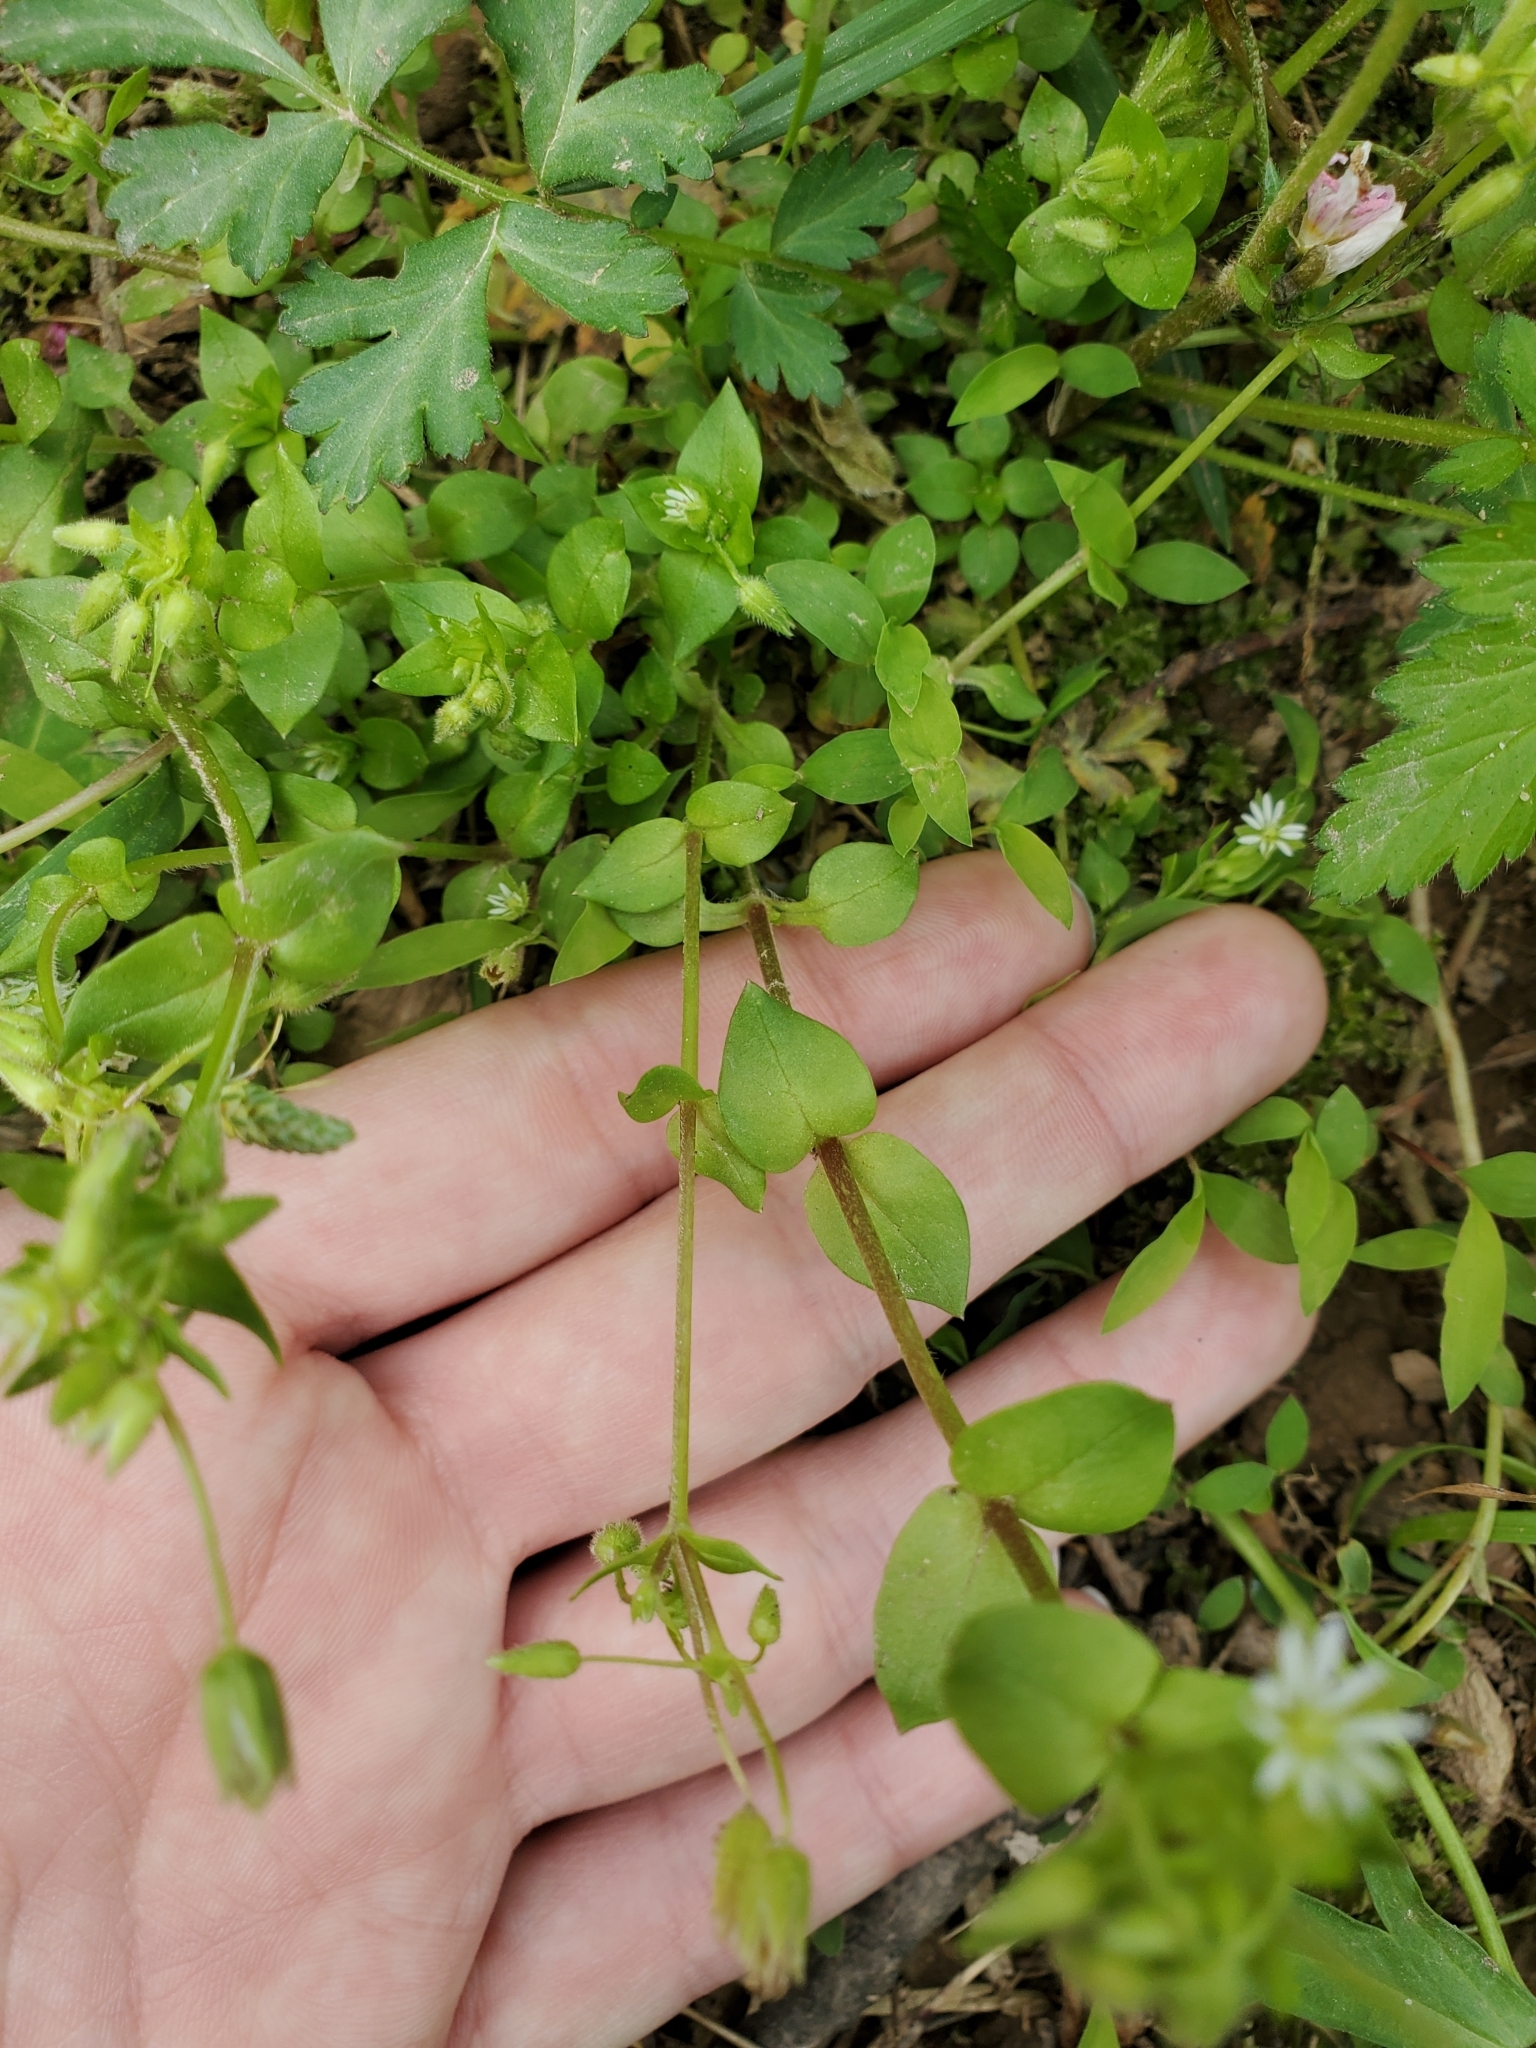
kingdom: Plantae
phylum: Tracheophyta
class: Magnoliopsida
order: Caryophyllales
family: Caryophyllaceae
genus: Stellaria
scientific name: Stellaria media
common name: Common chickweed
